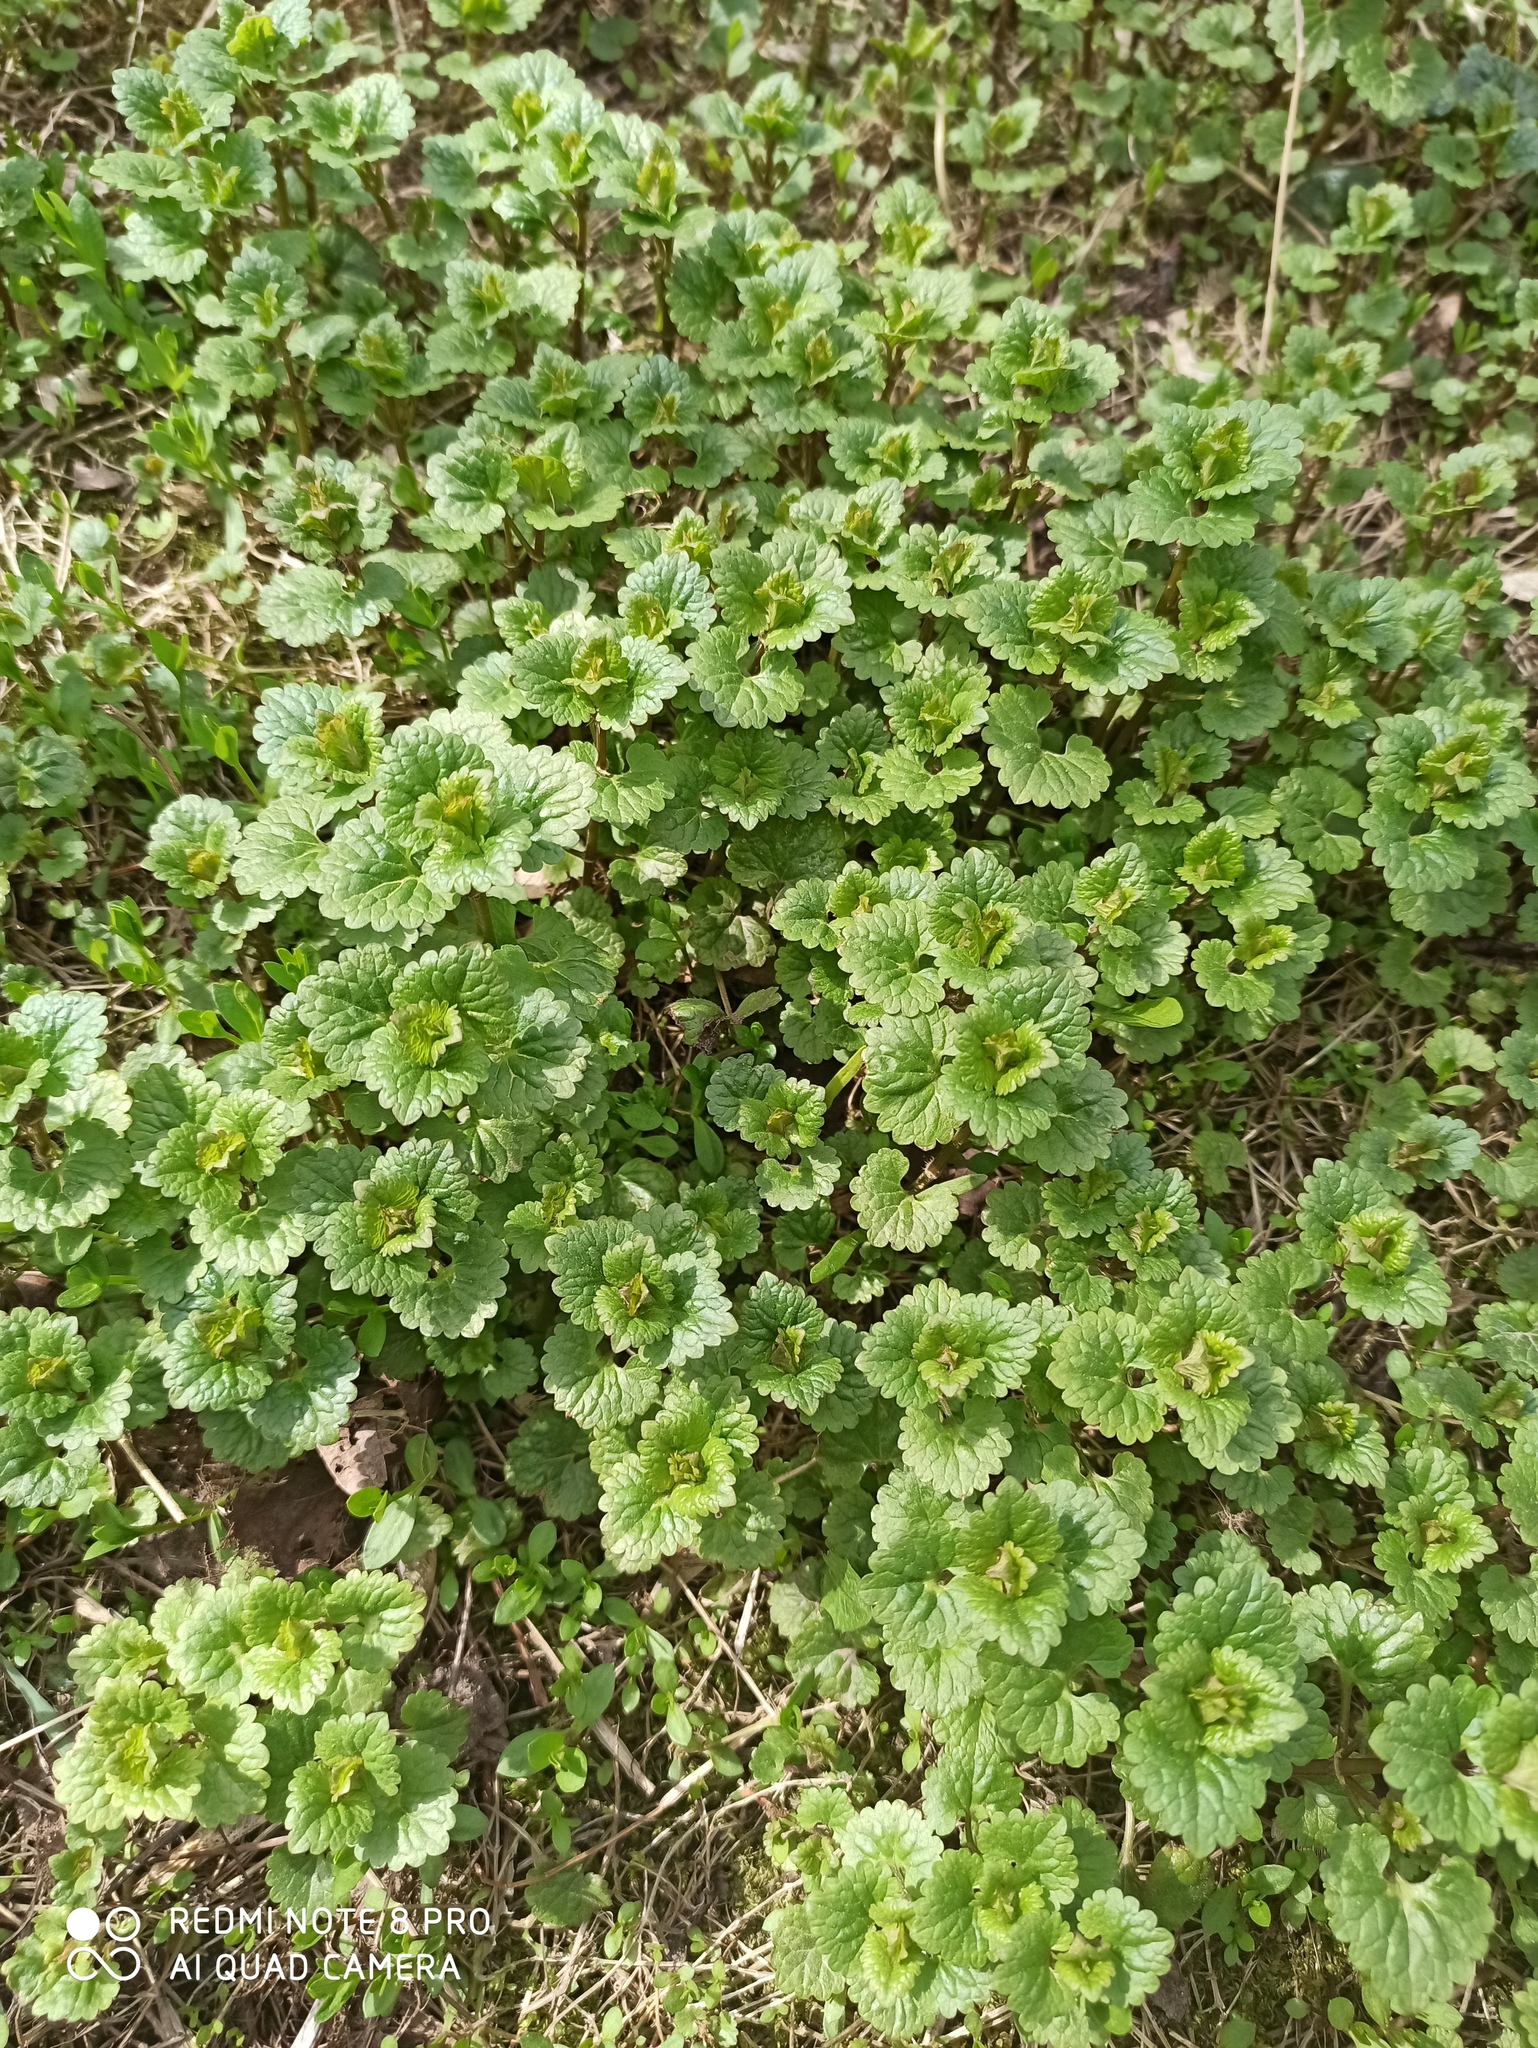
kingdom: Plantae
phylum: Tracheophyta
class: Magnoliopsida
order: Lamiales
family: Lamiaceae
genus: Glechoma
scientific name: Glechoma hederacea
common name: Ground ivy
